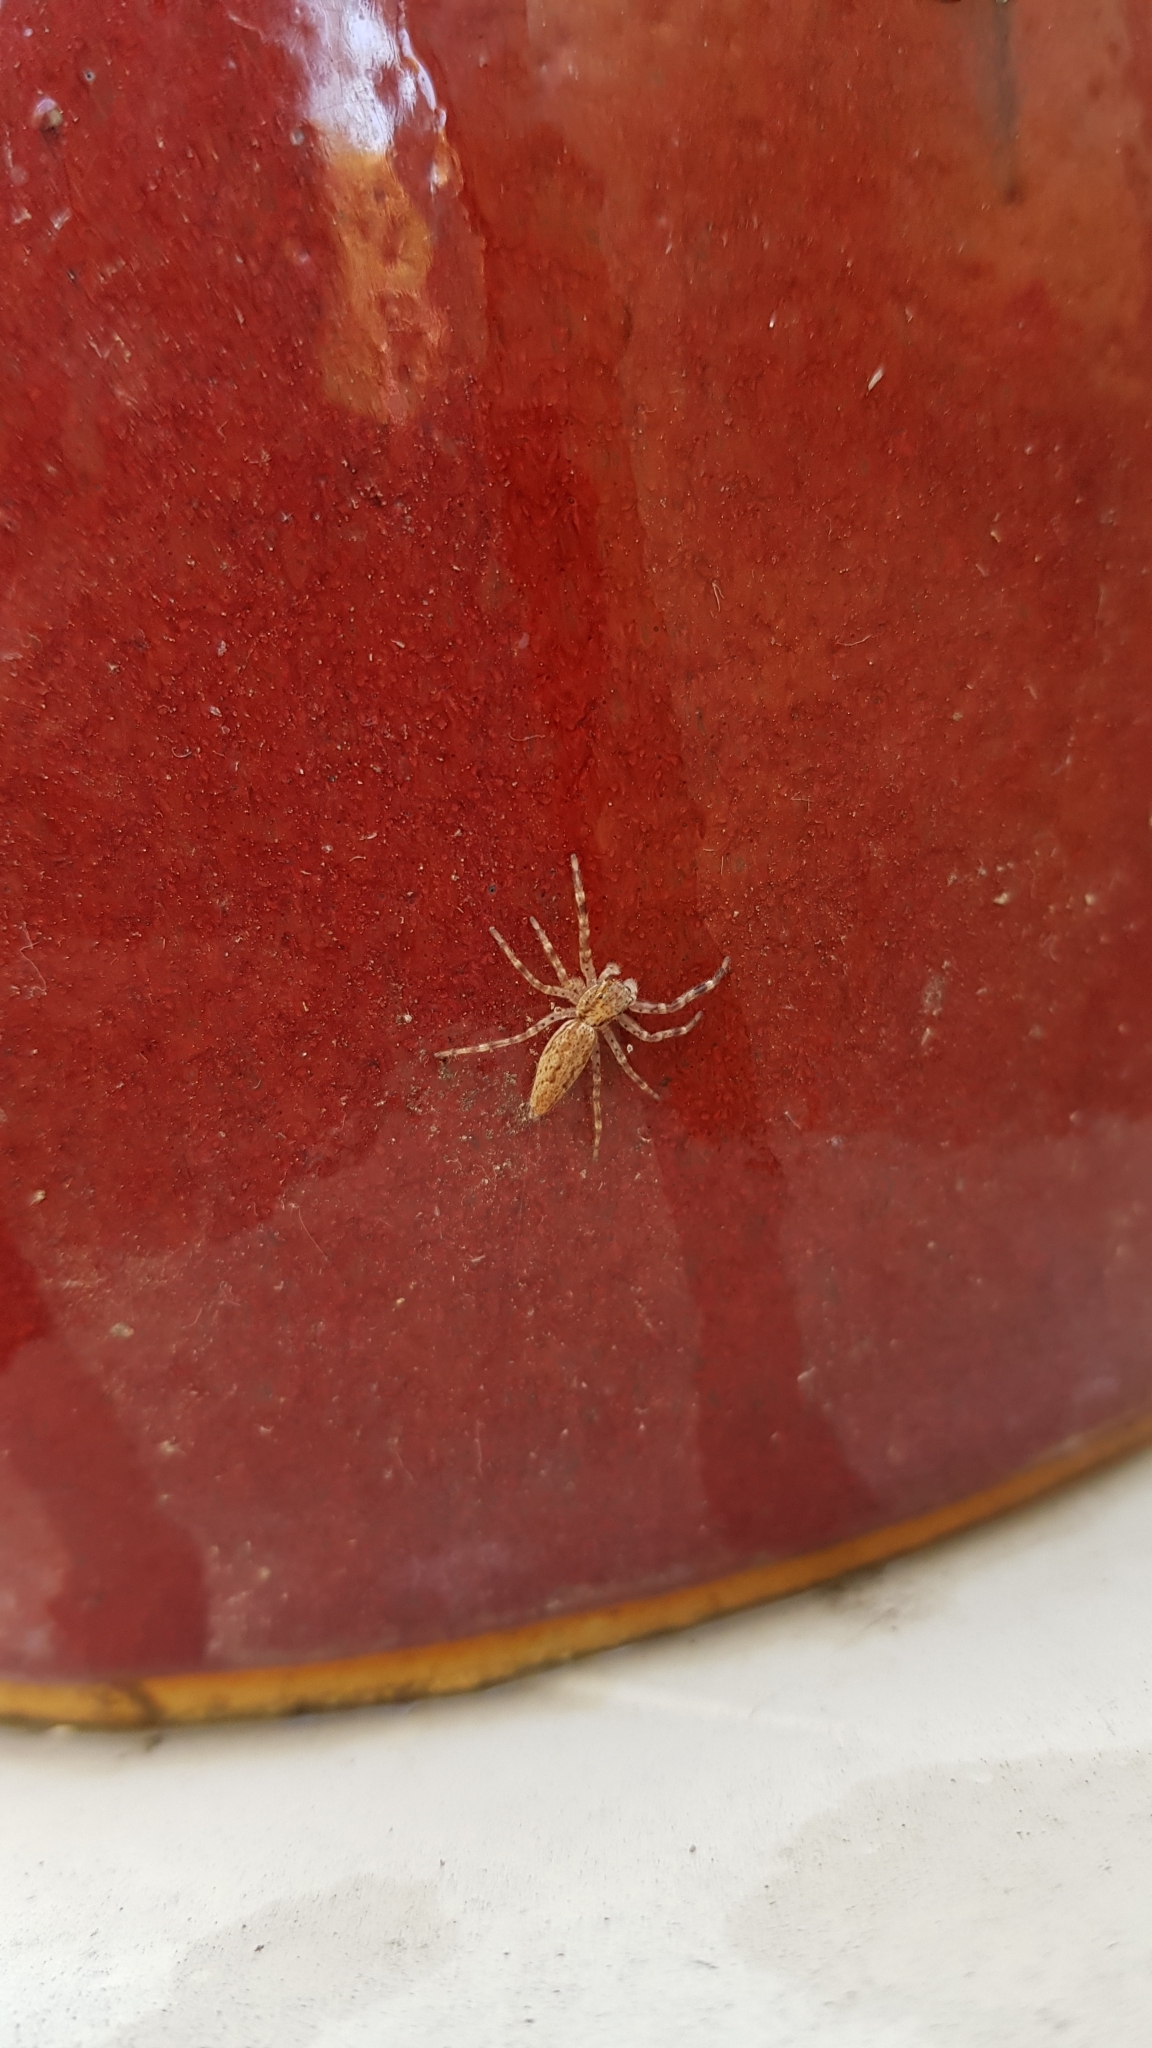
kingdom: Animalia
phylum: Arthropoda
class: Arachnida
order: Araneae
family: Salticidae
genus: Helpis
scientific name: Helpis minitabunda
